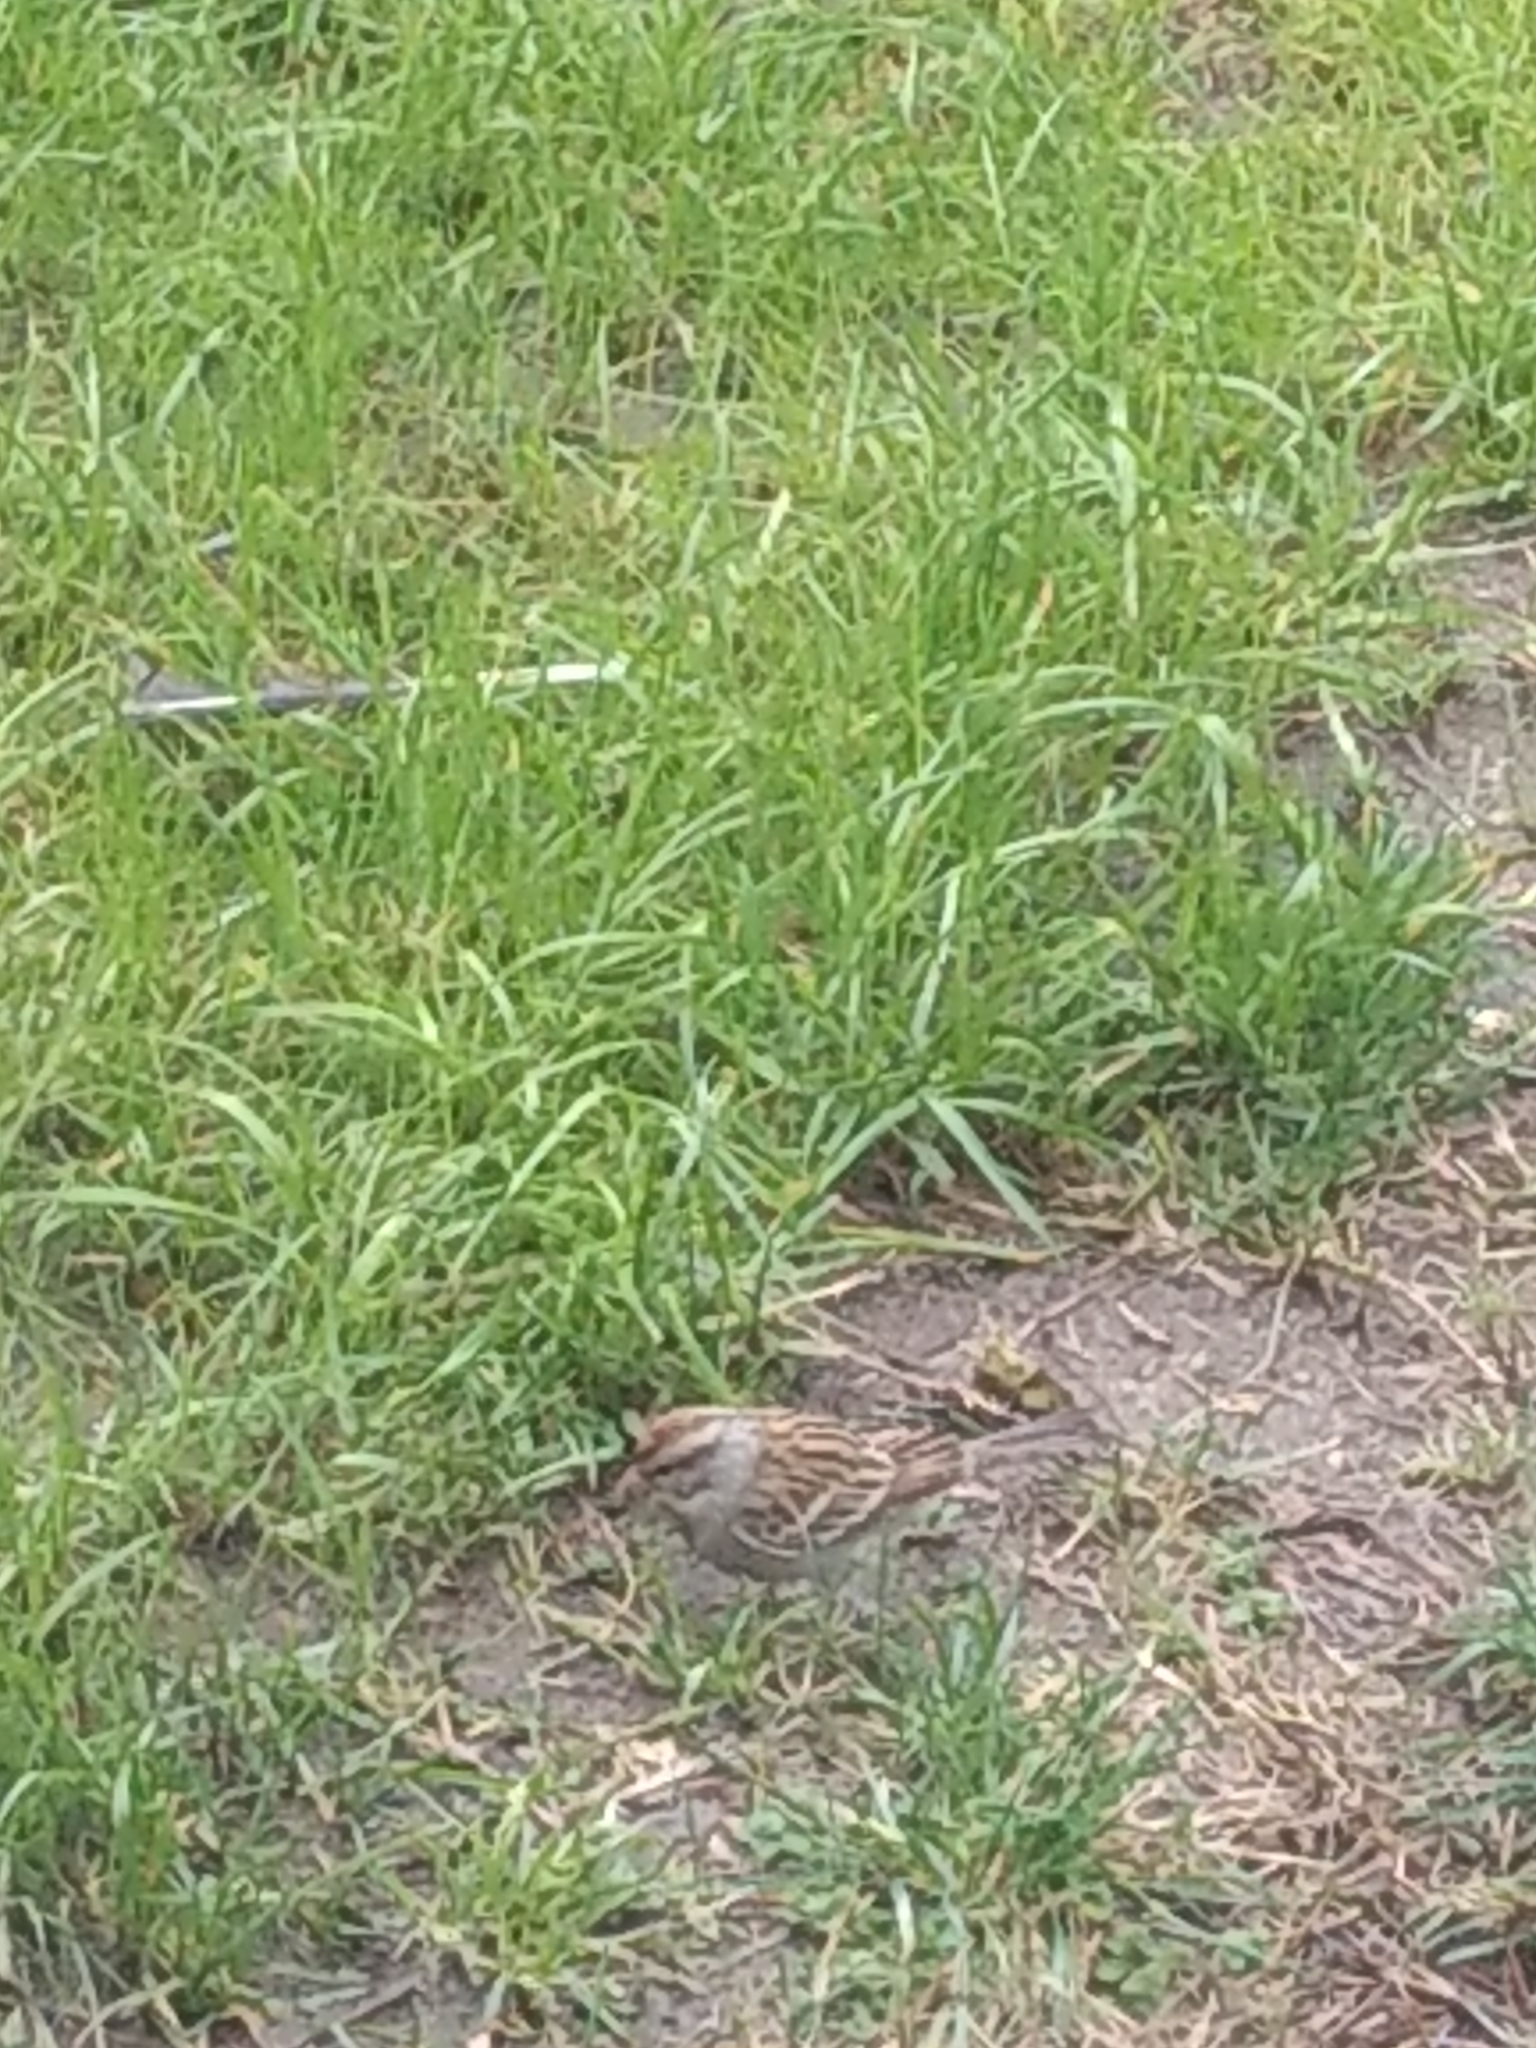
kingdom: Animalia
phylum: Chordata
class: Aves
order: Passeriformes
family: Passerellidae
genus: Spizella
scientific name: Spizella passerina
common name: Chipping sparrow
